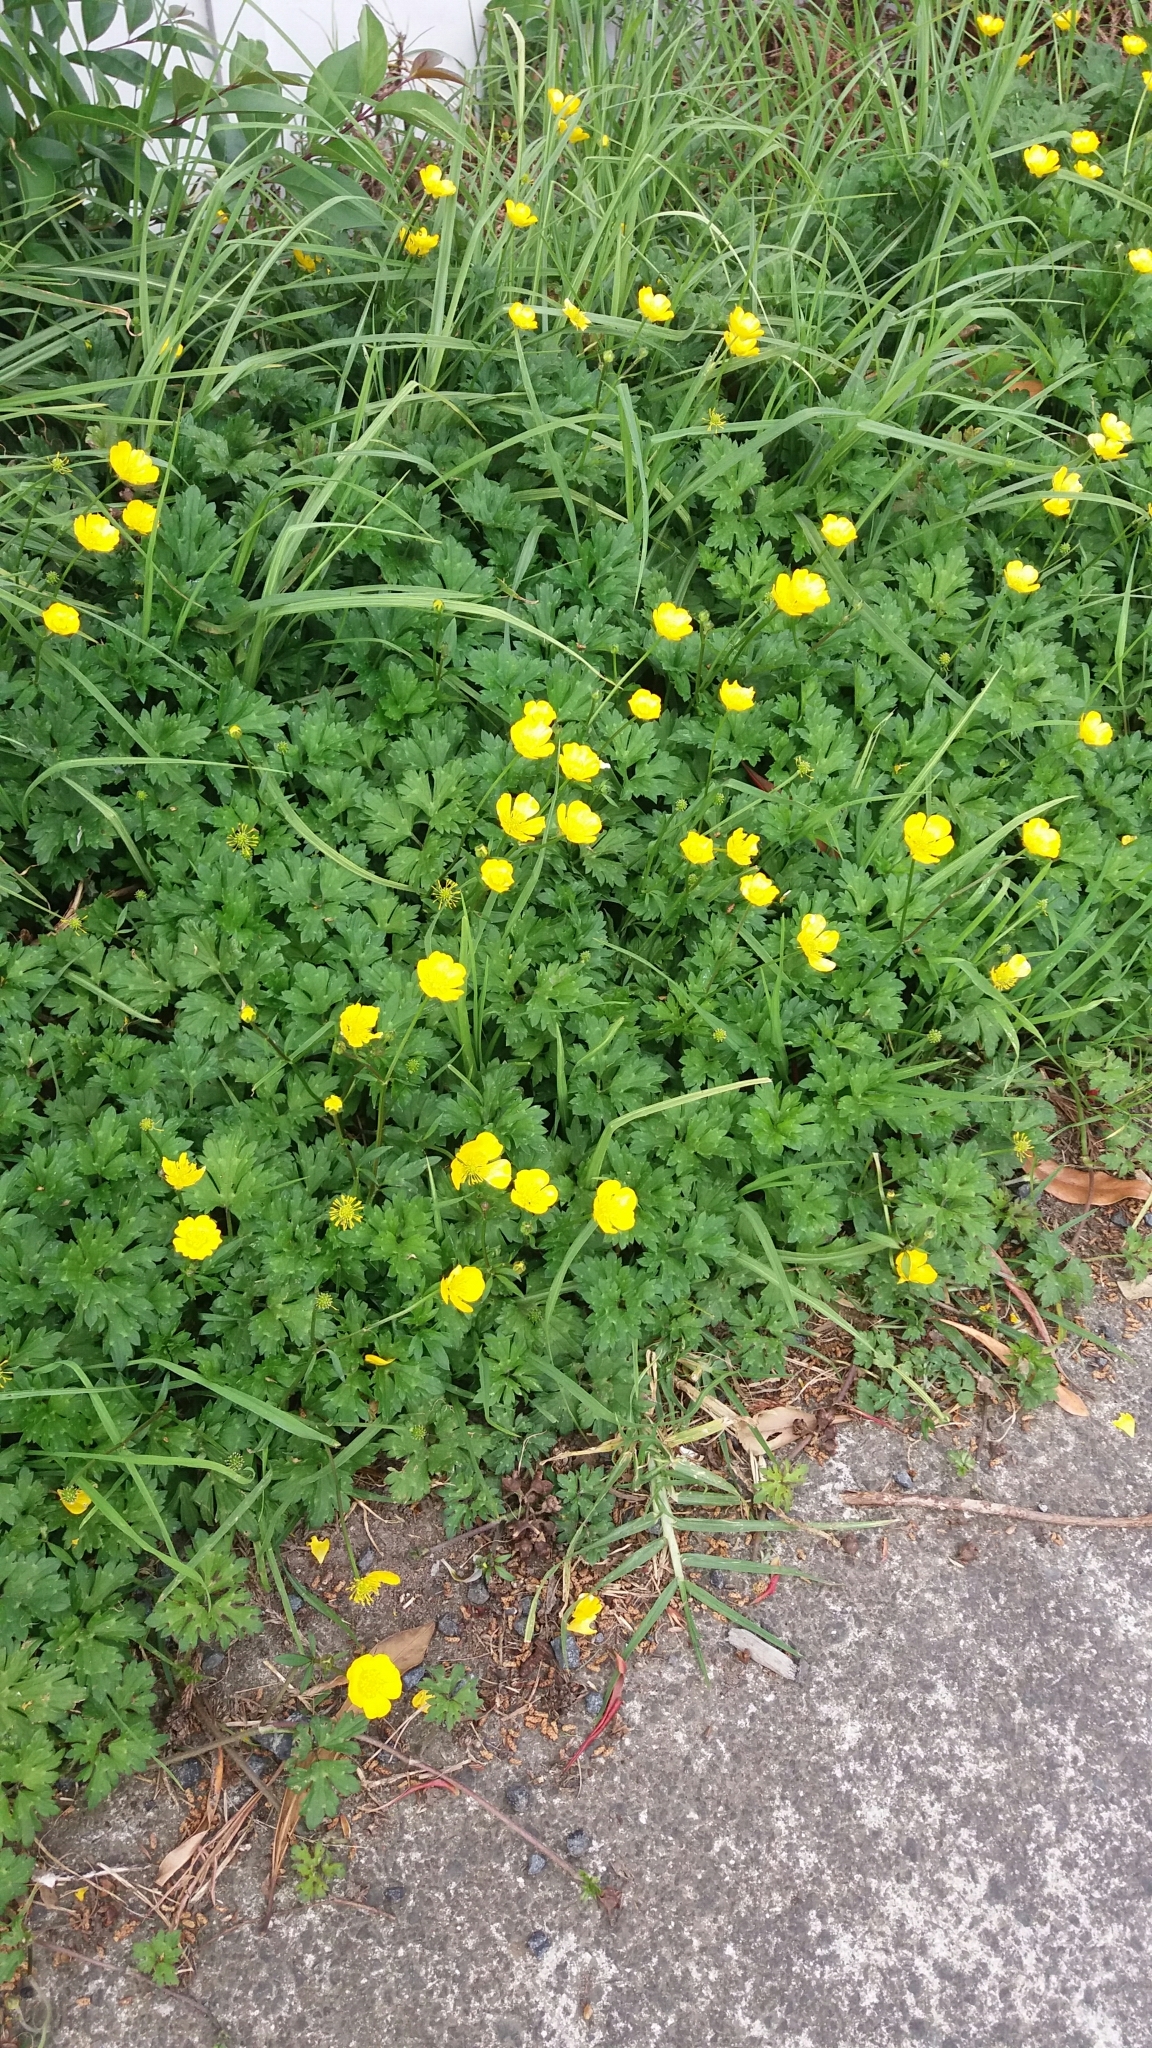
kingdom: Plantae
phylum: Tracheophyta
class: Magnoliopsida
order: Ranunculales
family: Ranunculaceae
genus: Ranunculus
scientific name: Ranunculus repens
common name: Creeping buttercup
